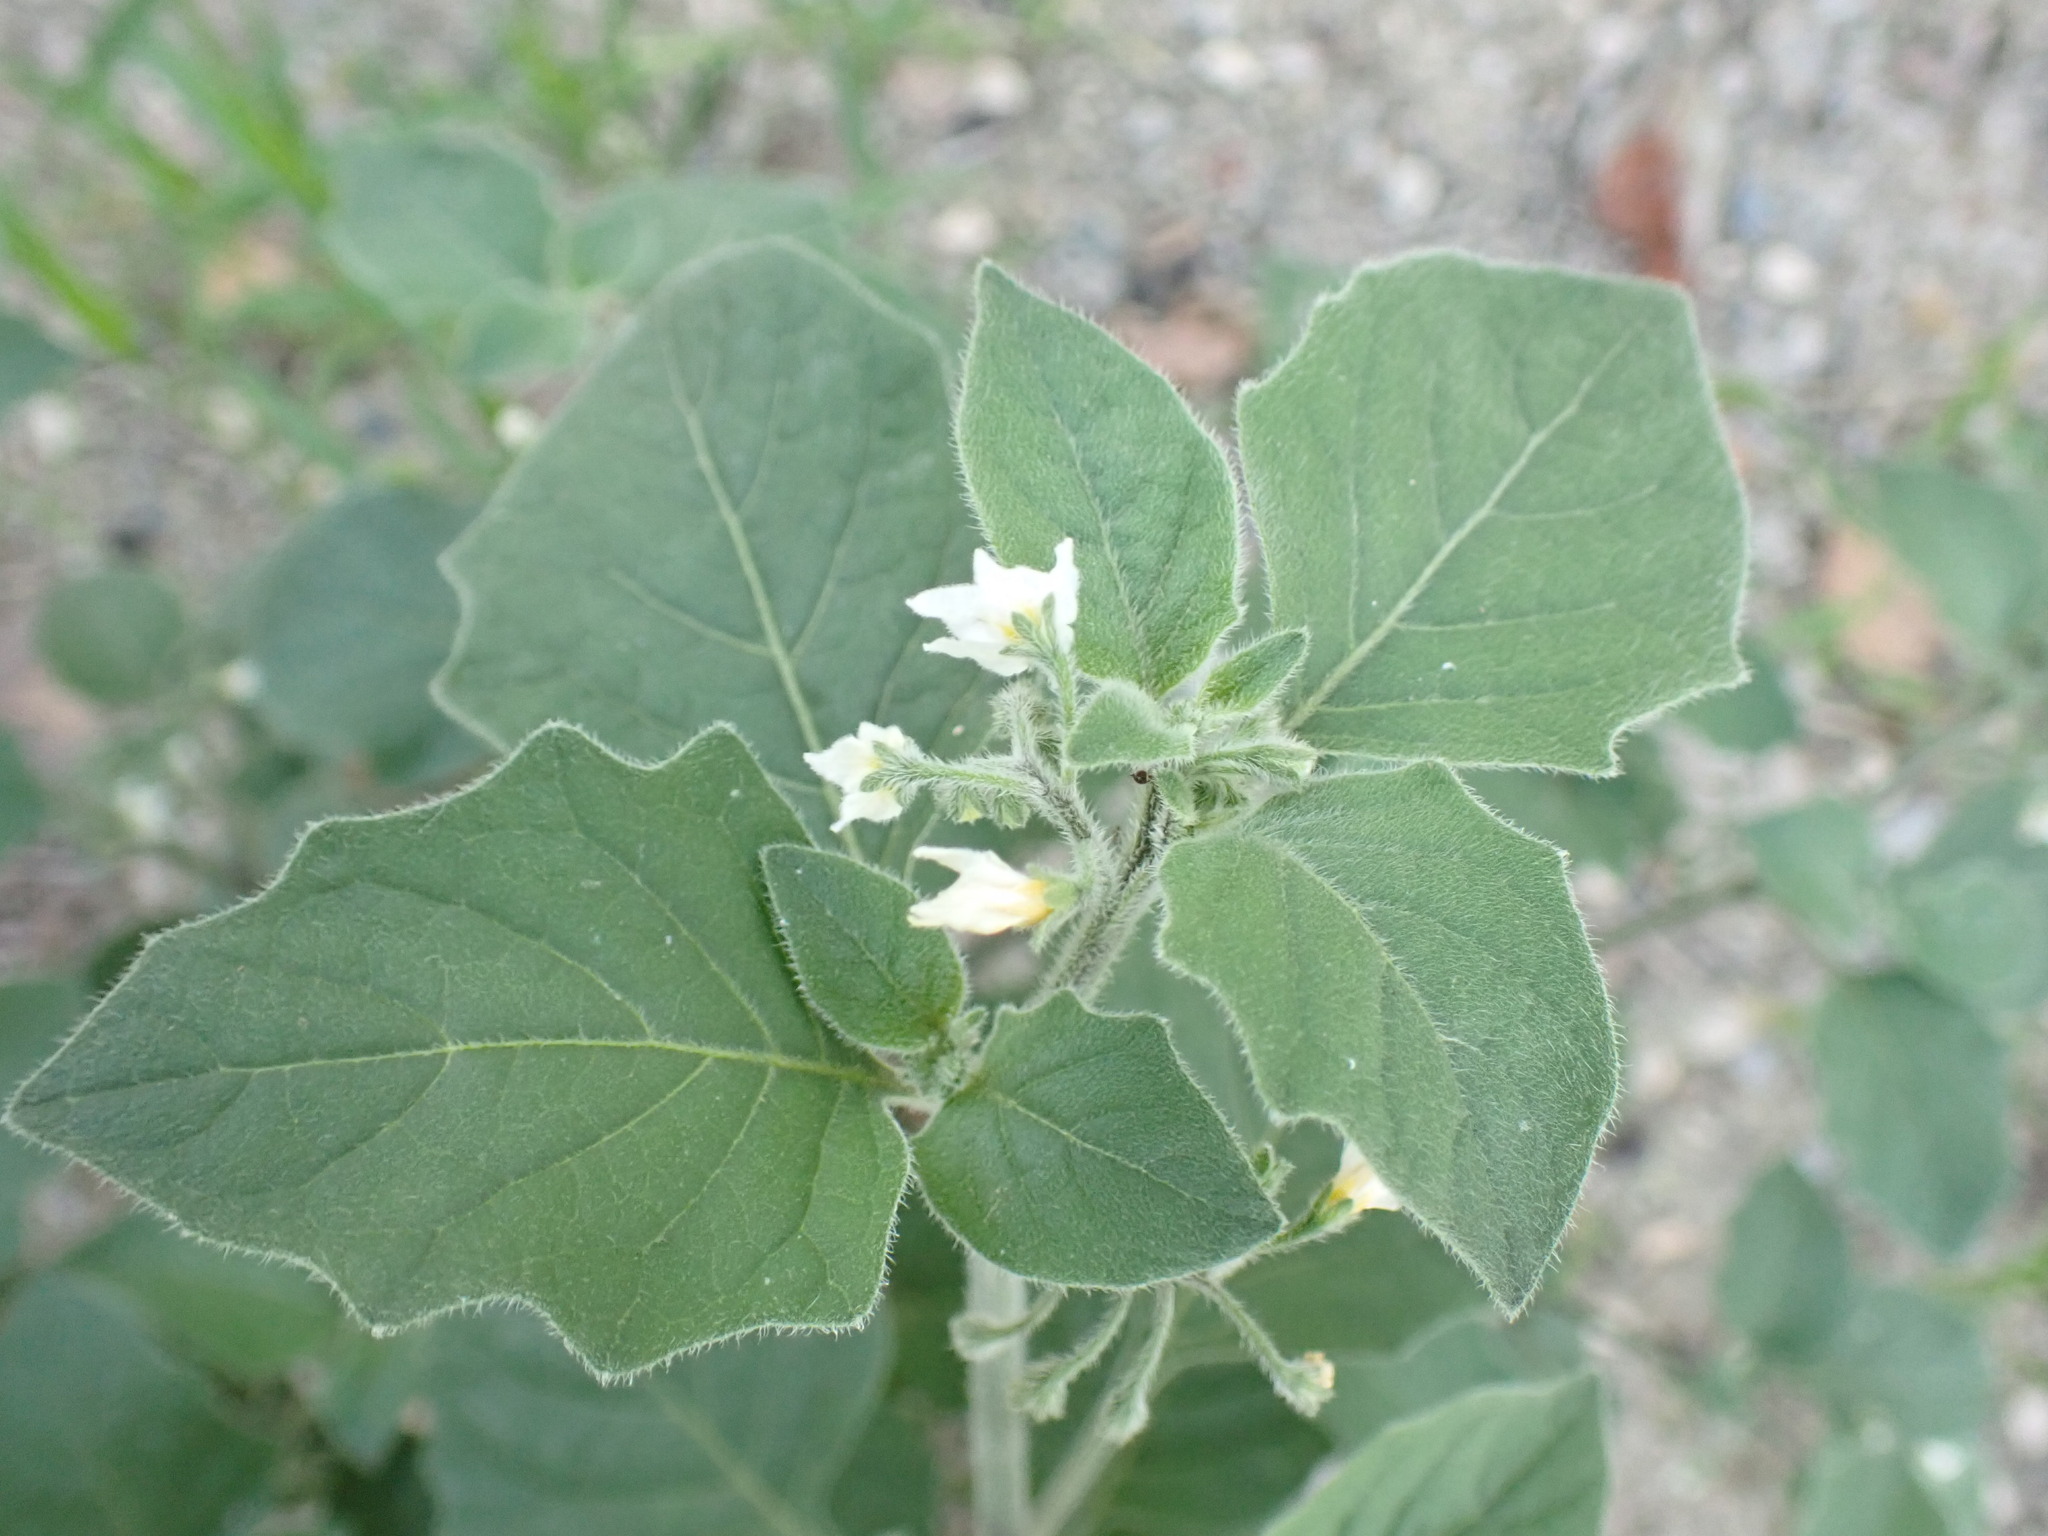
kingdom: Plantae
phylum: Tracheophyta
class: Magnoliopsida
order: Solanales
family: Solanaceae
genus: Solanum
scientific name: Solanum villosum
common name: Red nightshade
